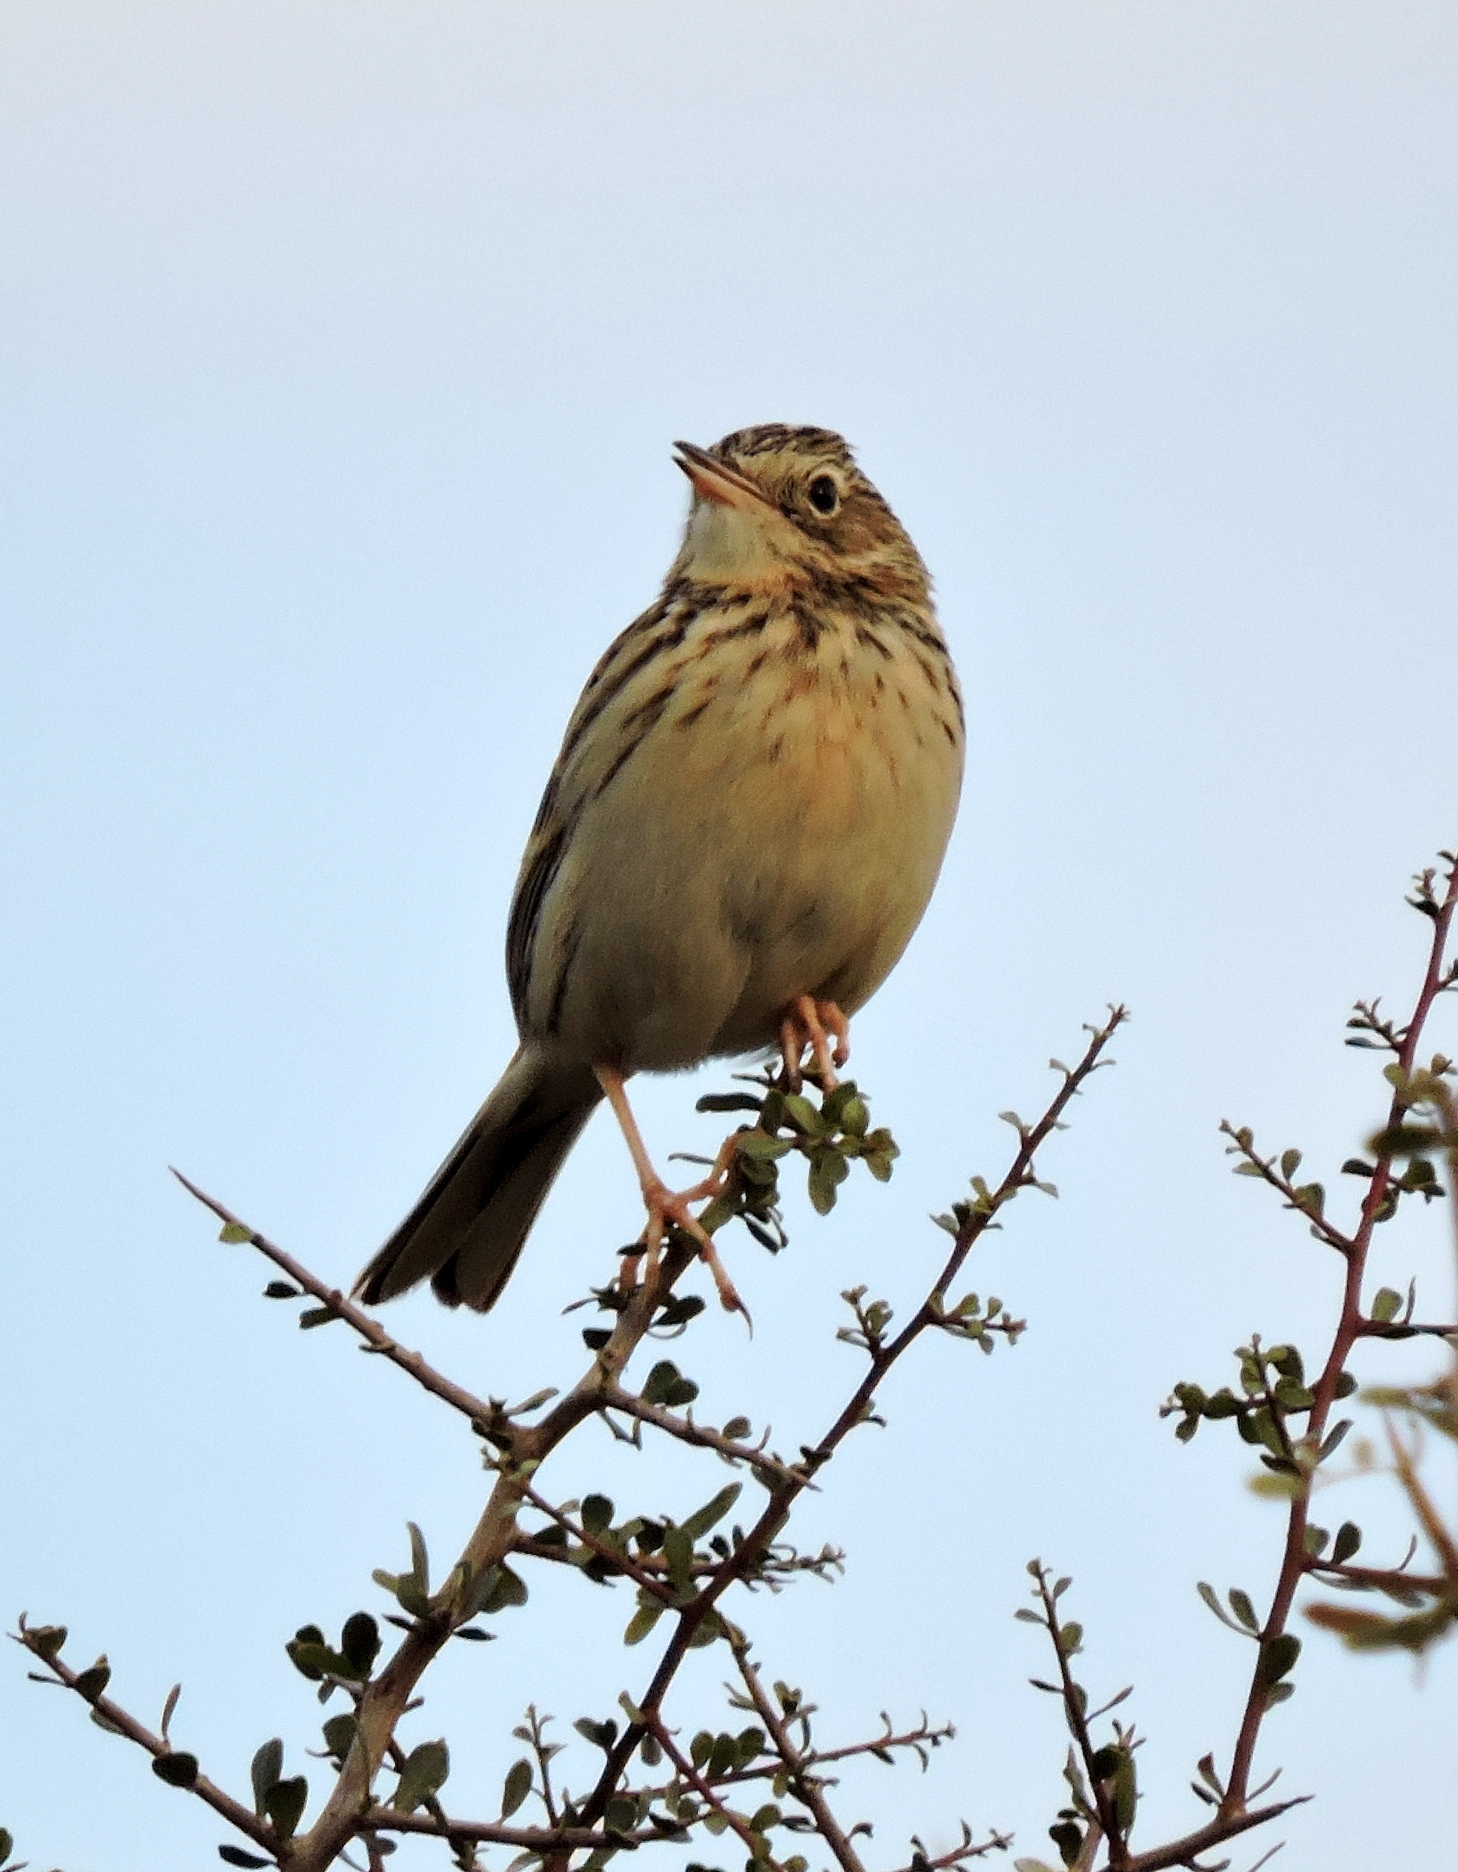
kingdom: Animalia
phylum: Chordata
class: Aves
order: Passeriformes
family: Motacillidae
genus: Anthus
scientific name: Anthus hellmayri
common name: Hellmayr's pipit
